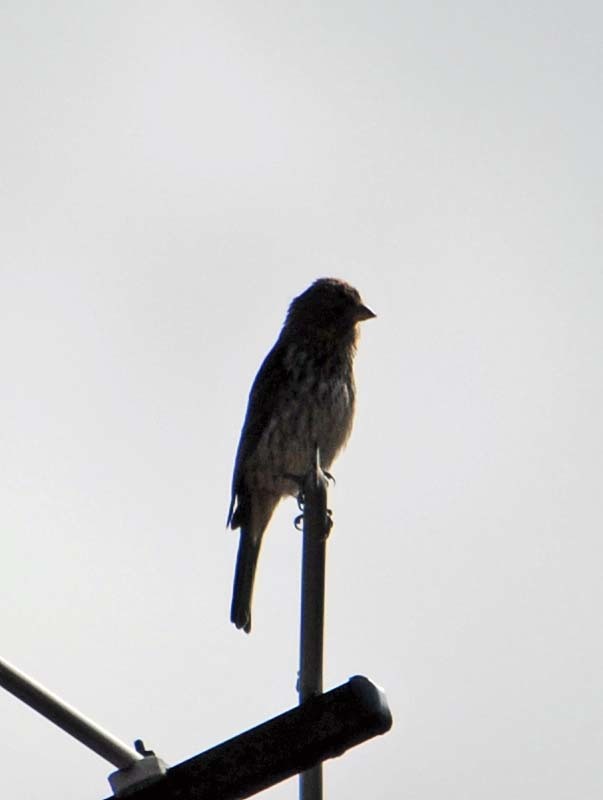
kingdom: Animalia
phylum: Chordata
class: Aves
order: Passeriformes
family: Fringillidae
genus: Haemorhous
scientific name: Haemorhous mexicanus
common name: House finch
